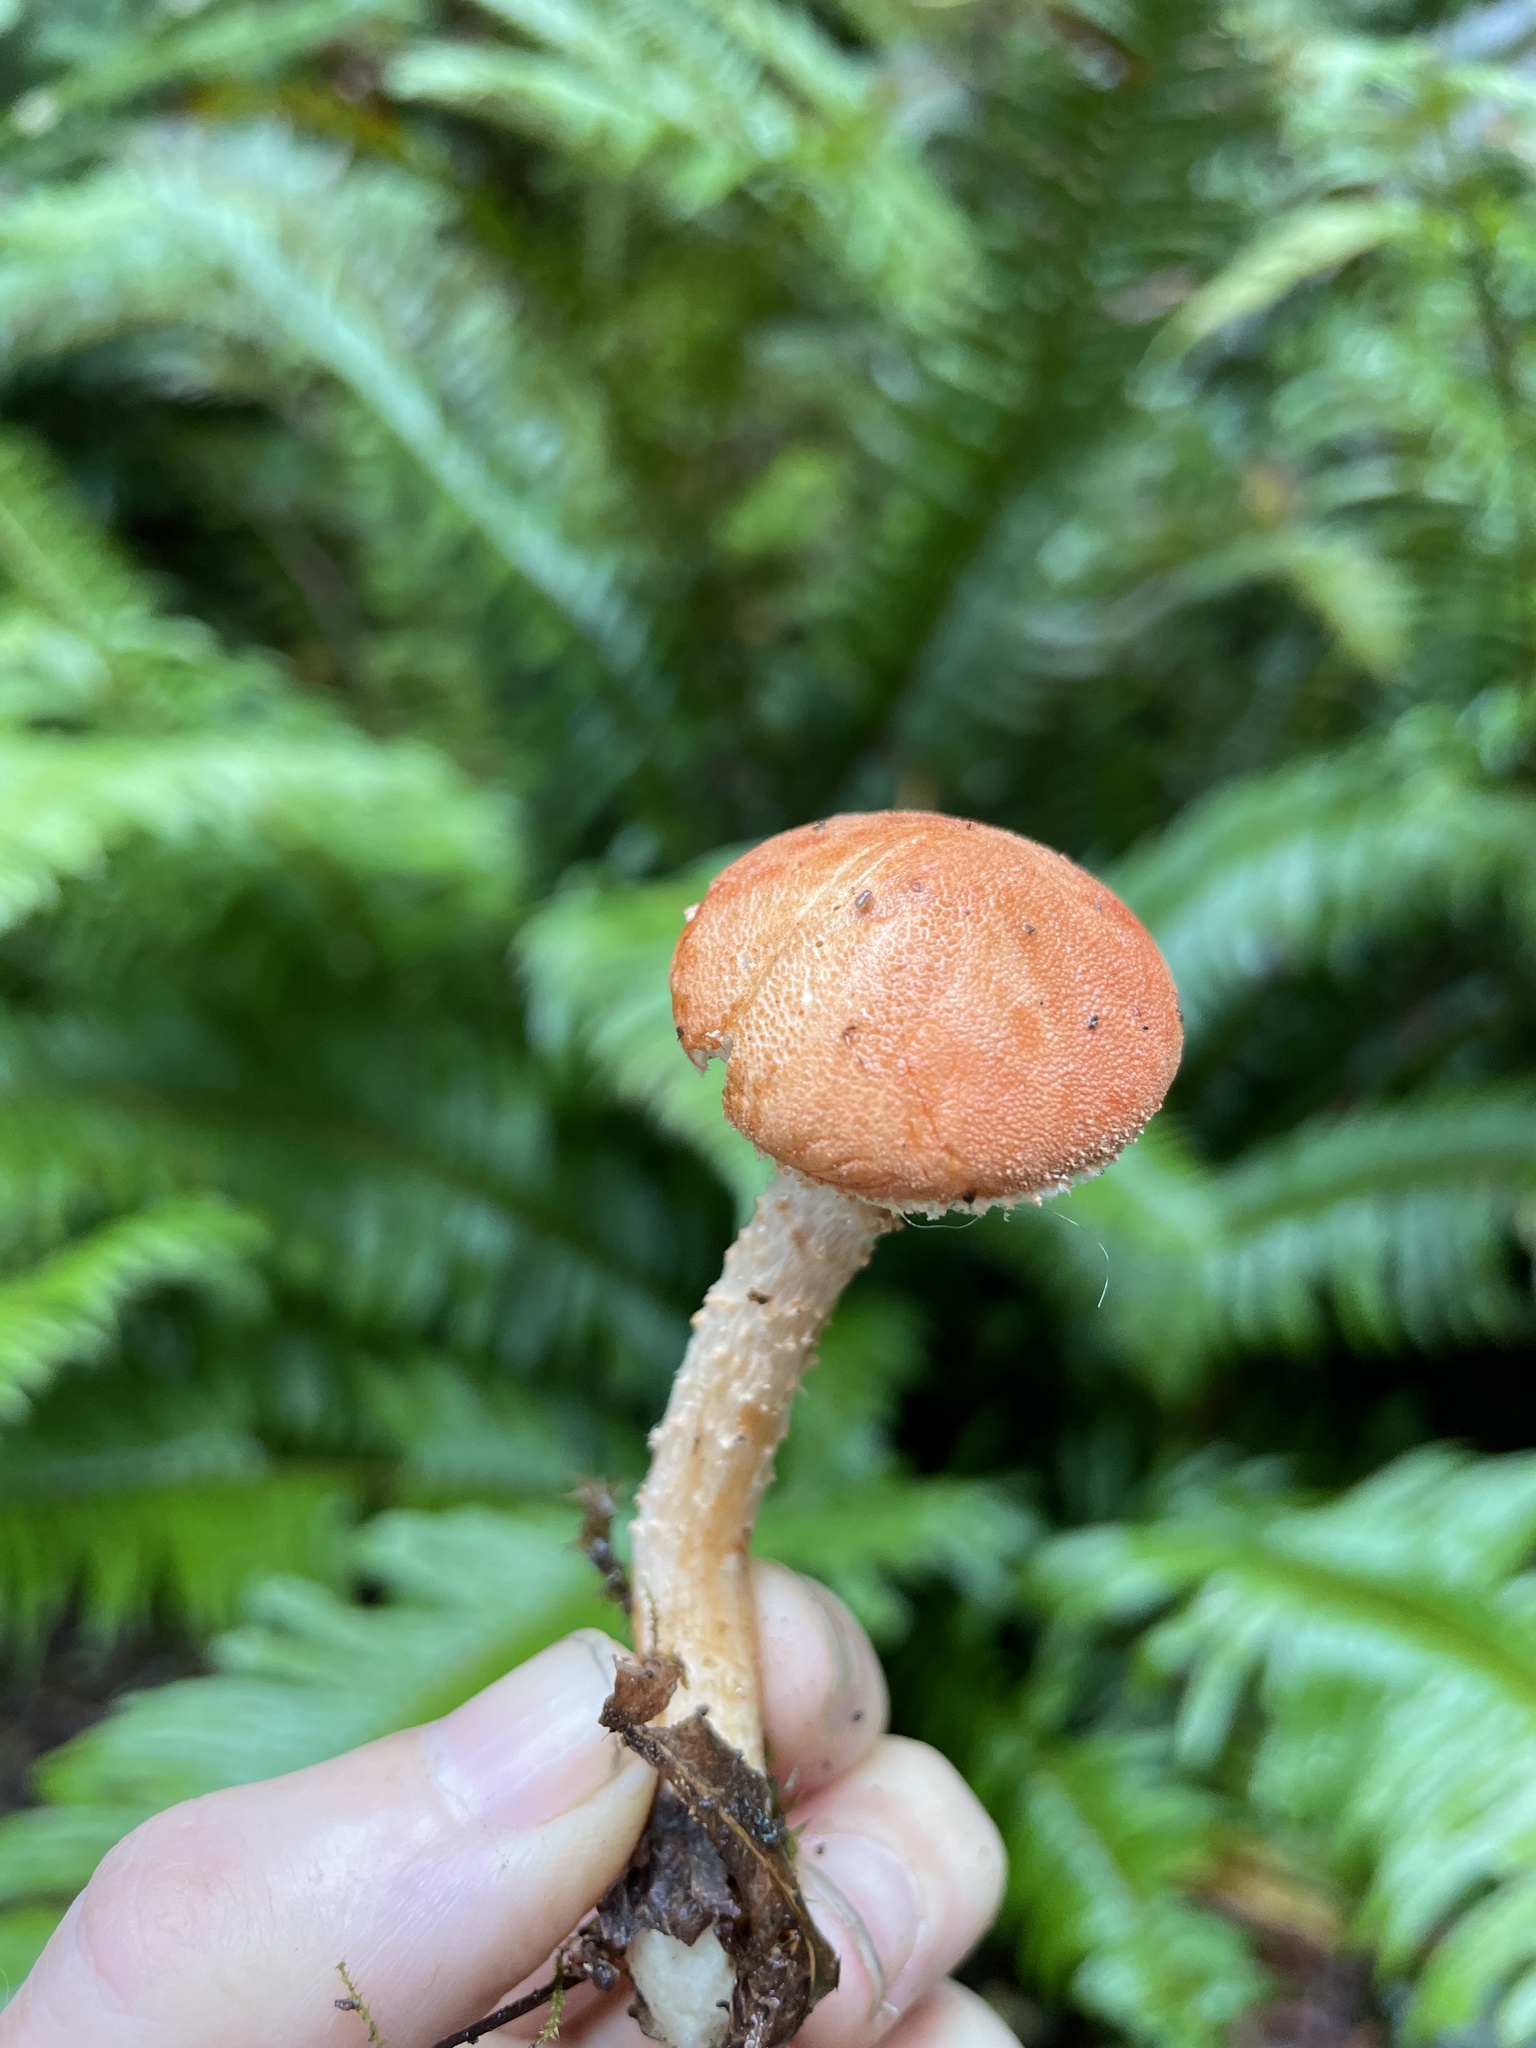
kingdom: Fungi
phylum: Basidiomycota
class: Agaricomycetes
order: Agaricales
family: Agaricaceae
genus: Cystodermella
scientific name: Cystodermella cinnabarina
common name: Cinnabar powdercap
